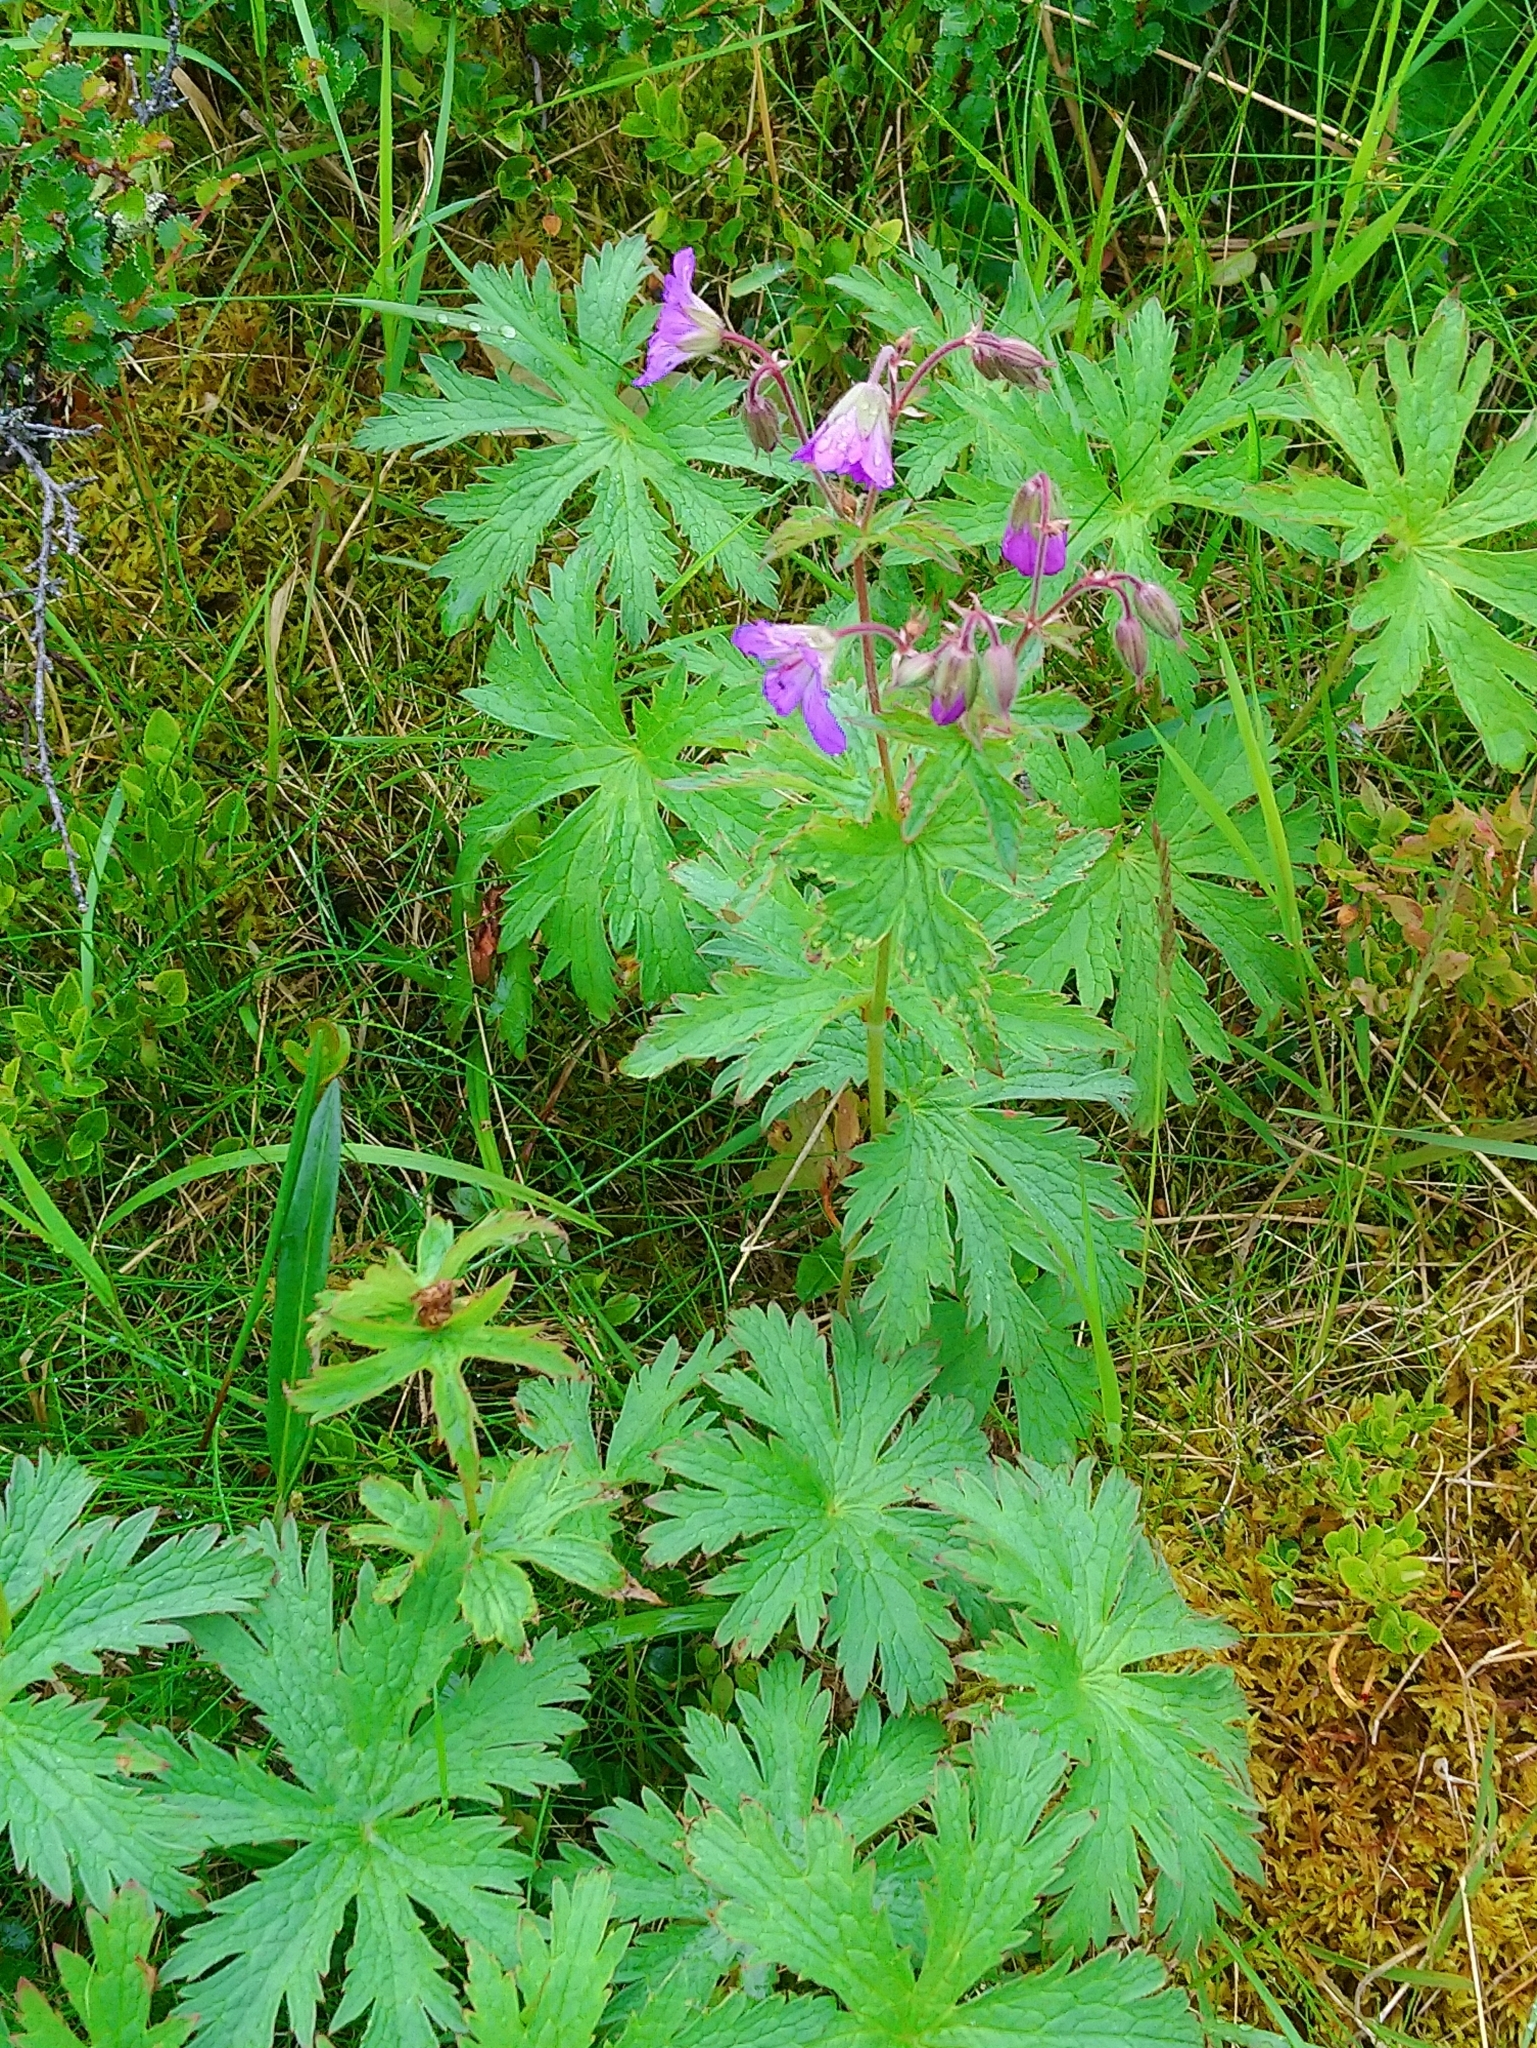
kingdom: Plantae
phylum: Tracheophyta
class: Magnoliopsida
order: Geraniales
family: Geraniaceae
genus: Geranium
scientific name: Geranium sylvaticum
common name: Wood crane's-bill
